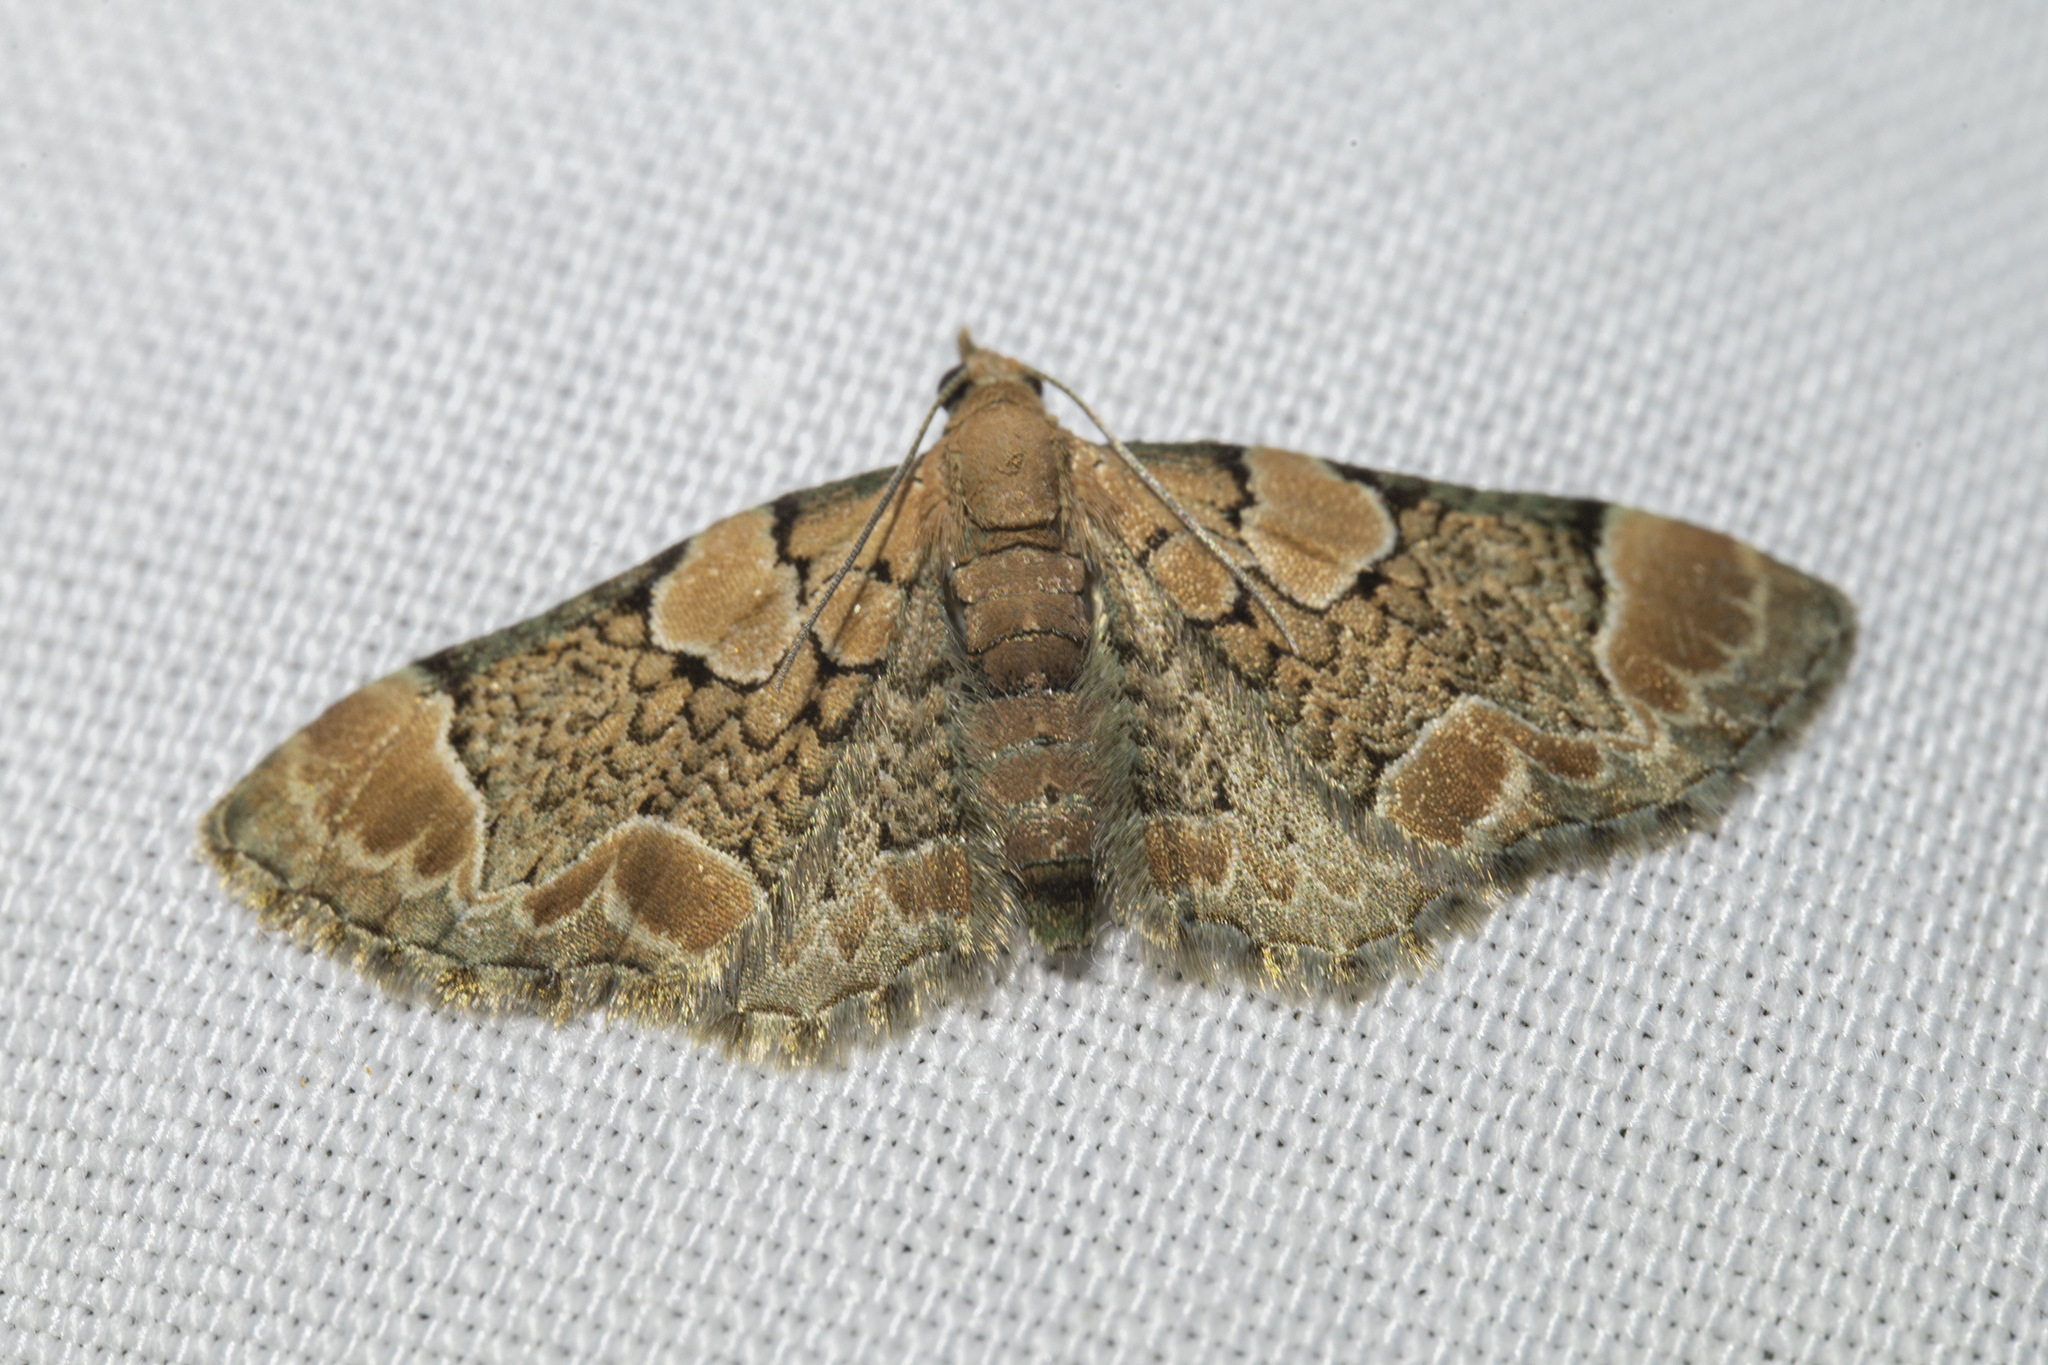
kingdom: Animalia
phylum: Arthropoda
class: Insecta
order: Lepidoptera
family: Geometridae
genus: Chloroclystis
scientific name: Chloroclystis
